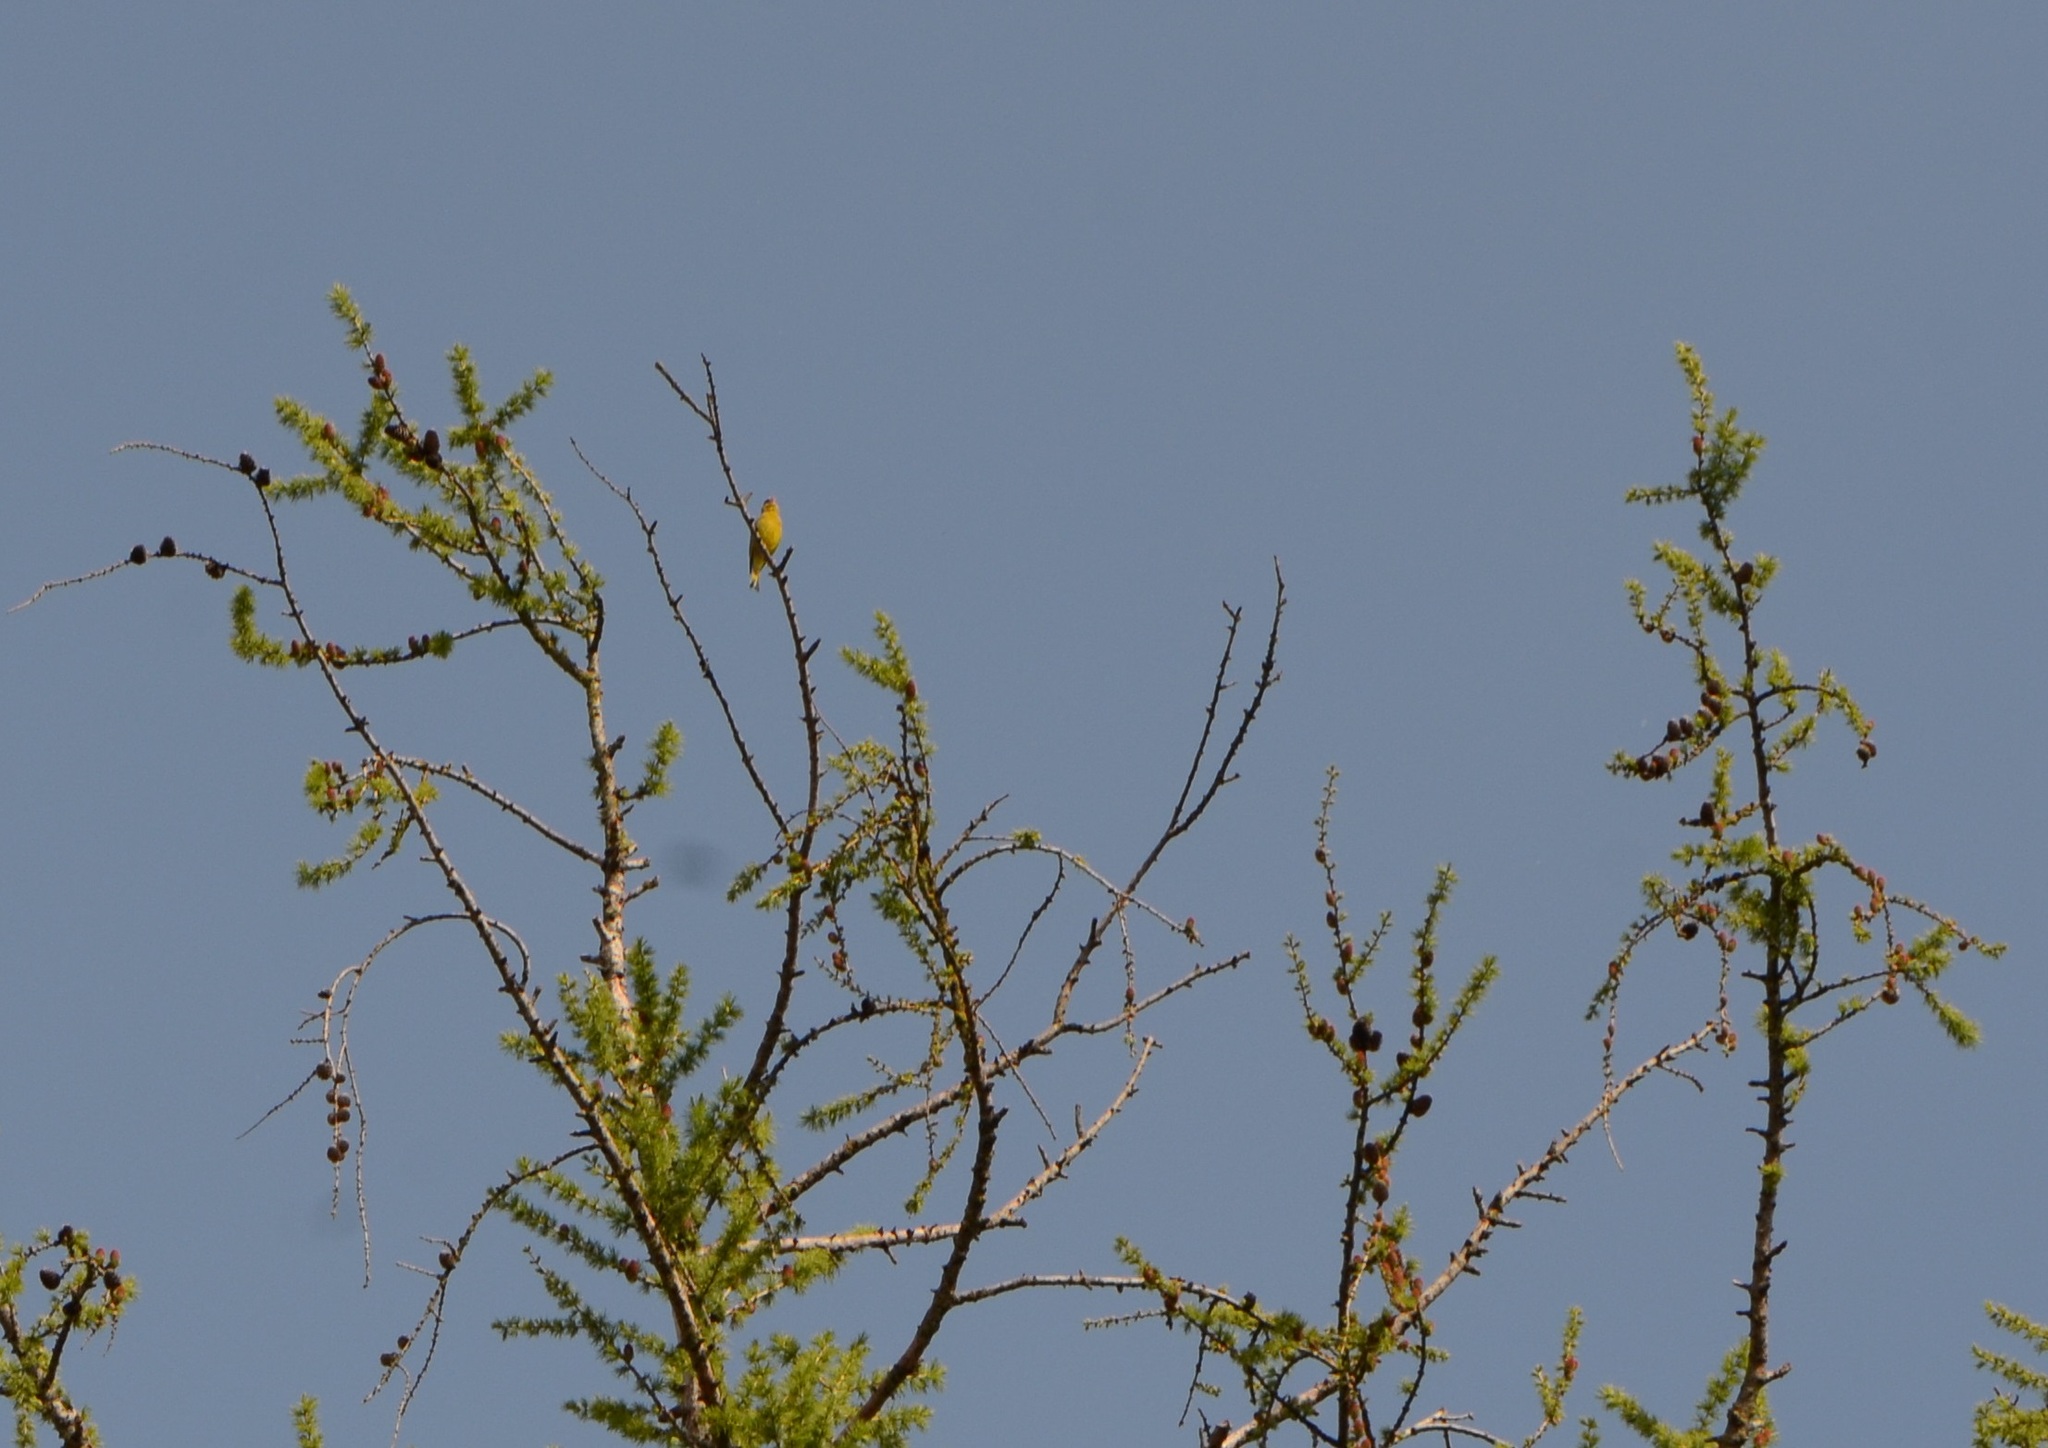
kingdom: Plantae
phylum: Tracheophyta
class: Pinopsida
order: Pinales
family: Pinaceae
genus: Larix
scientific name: Larix decidua
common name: European larch
